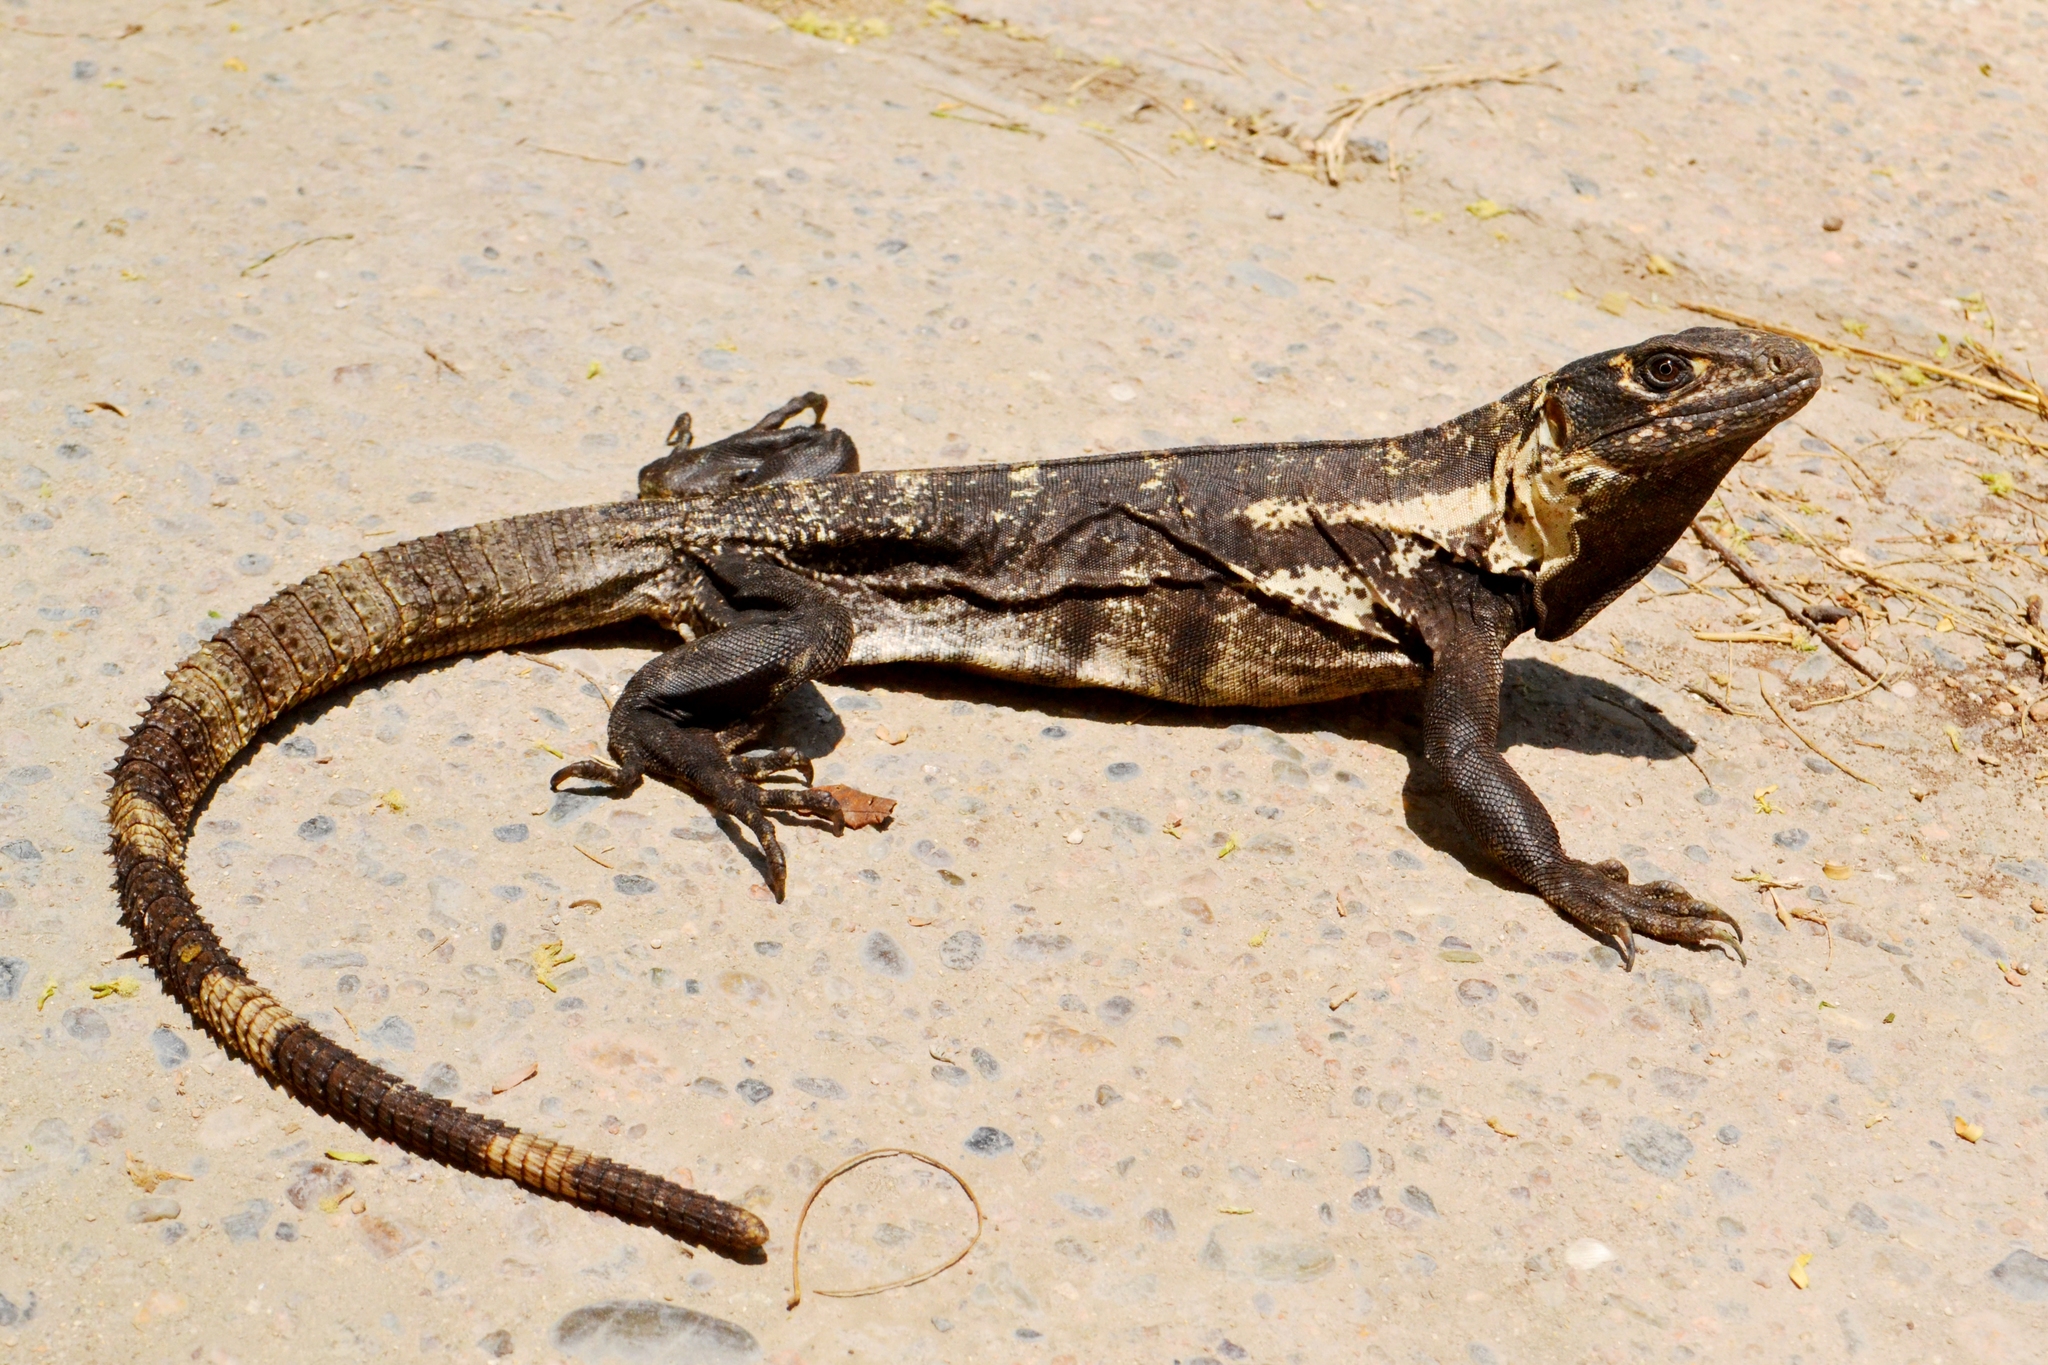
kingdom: Animalia
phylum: Chordata
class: Squamata
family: Iguanidae
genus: Ctenosaura
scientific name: Ctenosaura pectinata
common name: Guerreran spiny-tailed iguana
